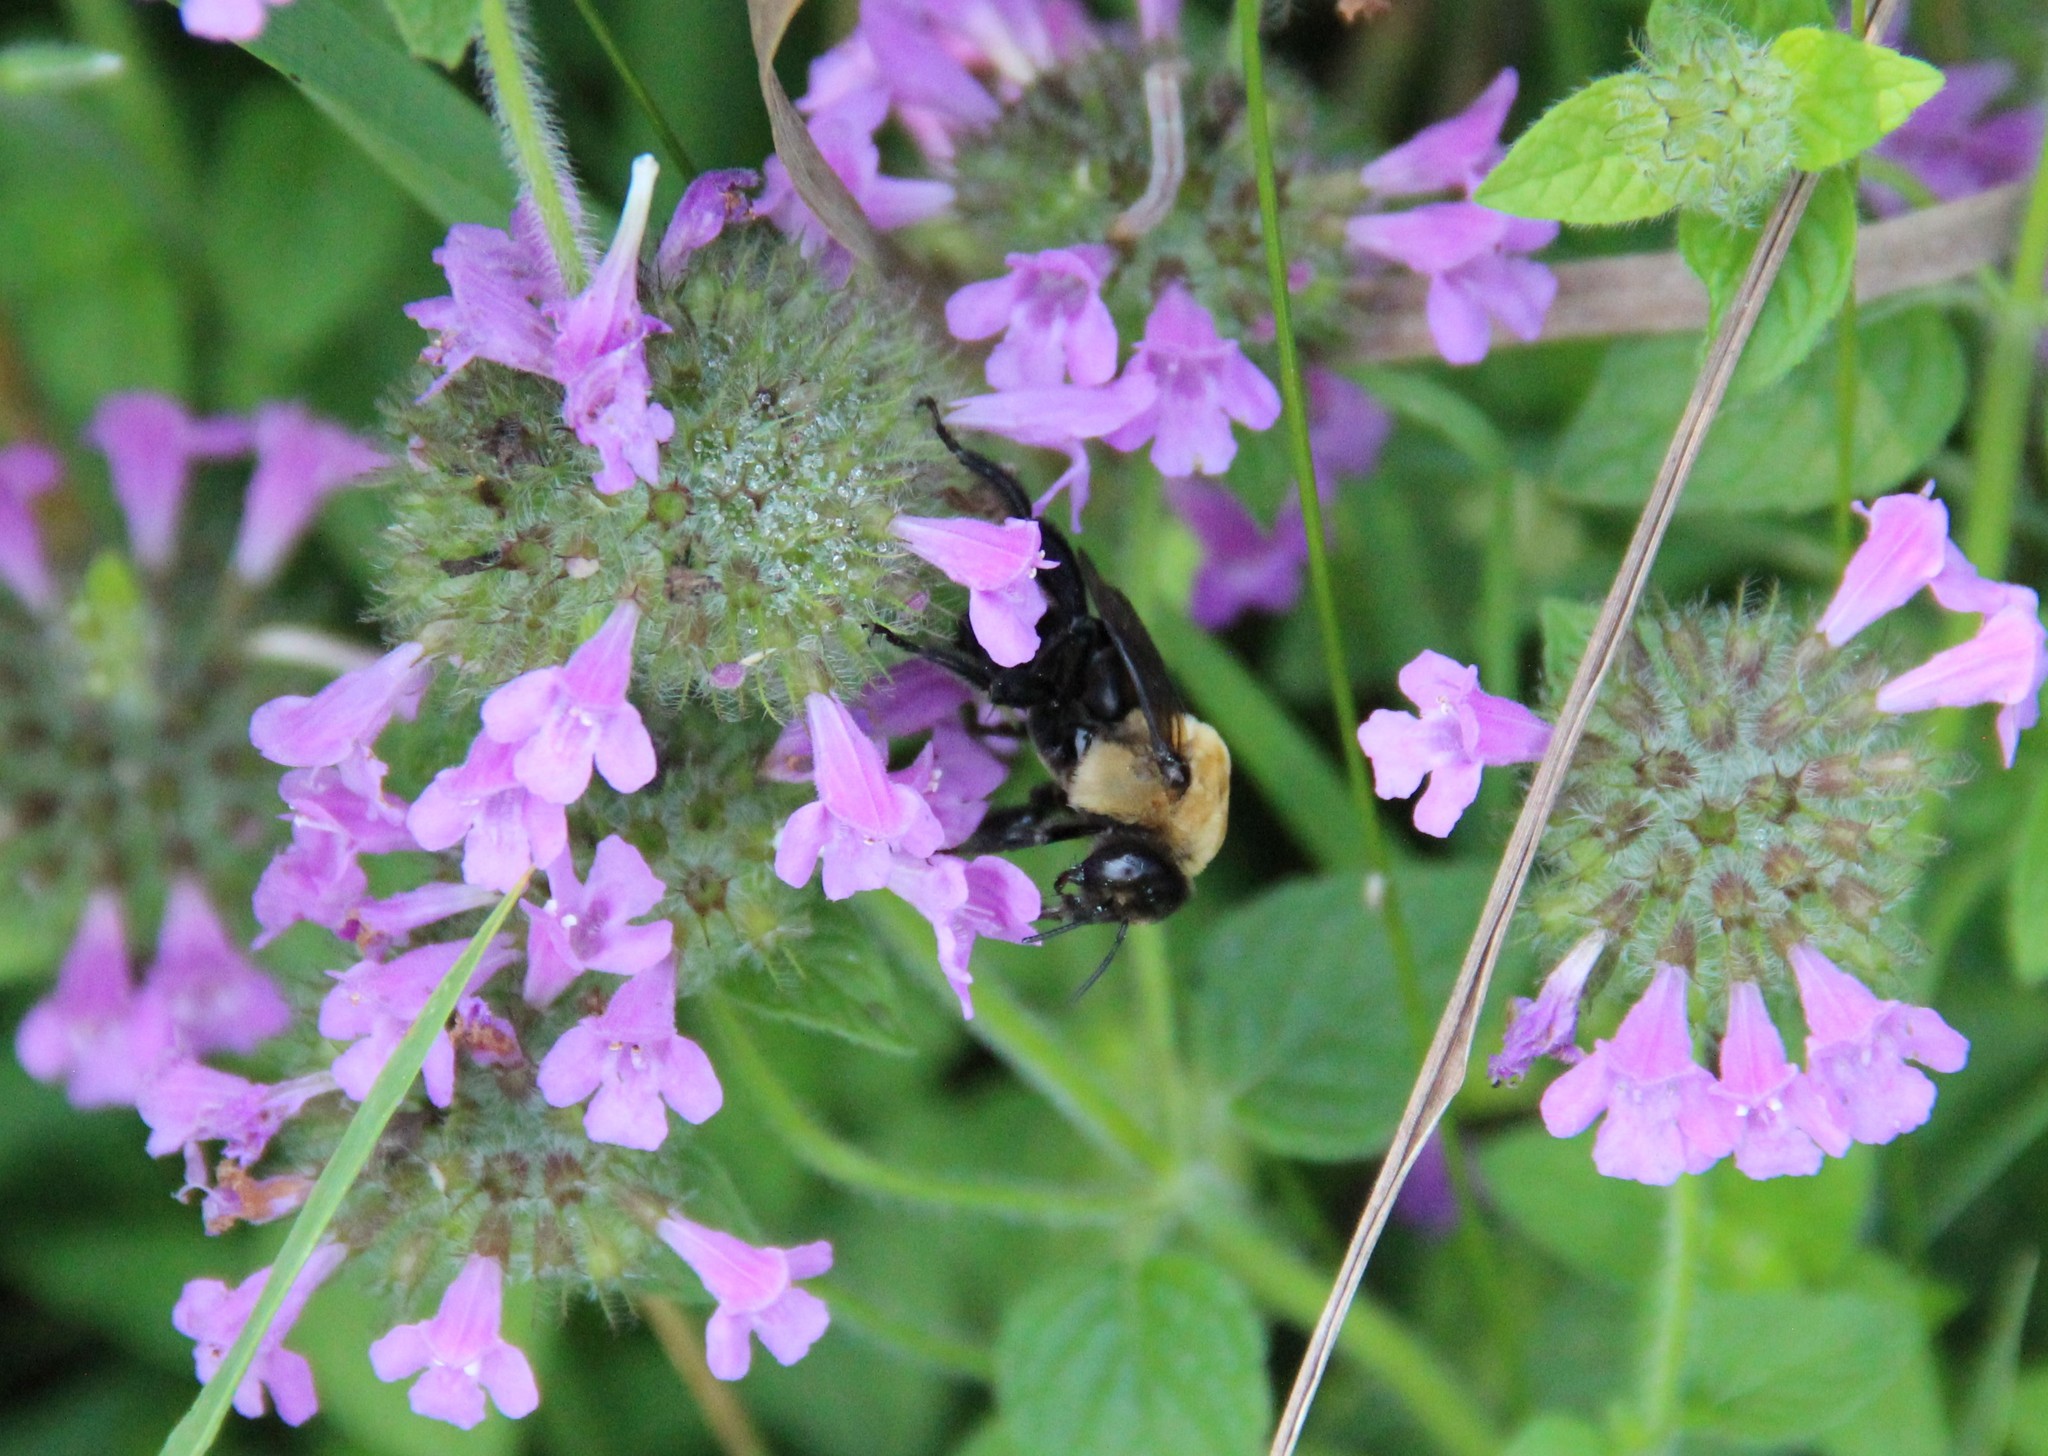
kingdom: Animalia
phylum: Arthropoda
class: Insecta
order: Hymenoptera
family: Apidae
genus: Ptilothrix
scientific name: Ptilothrix bombiformis
